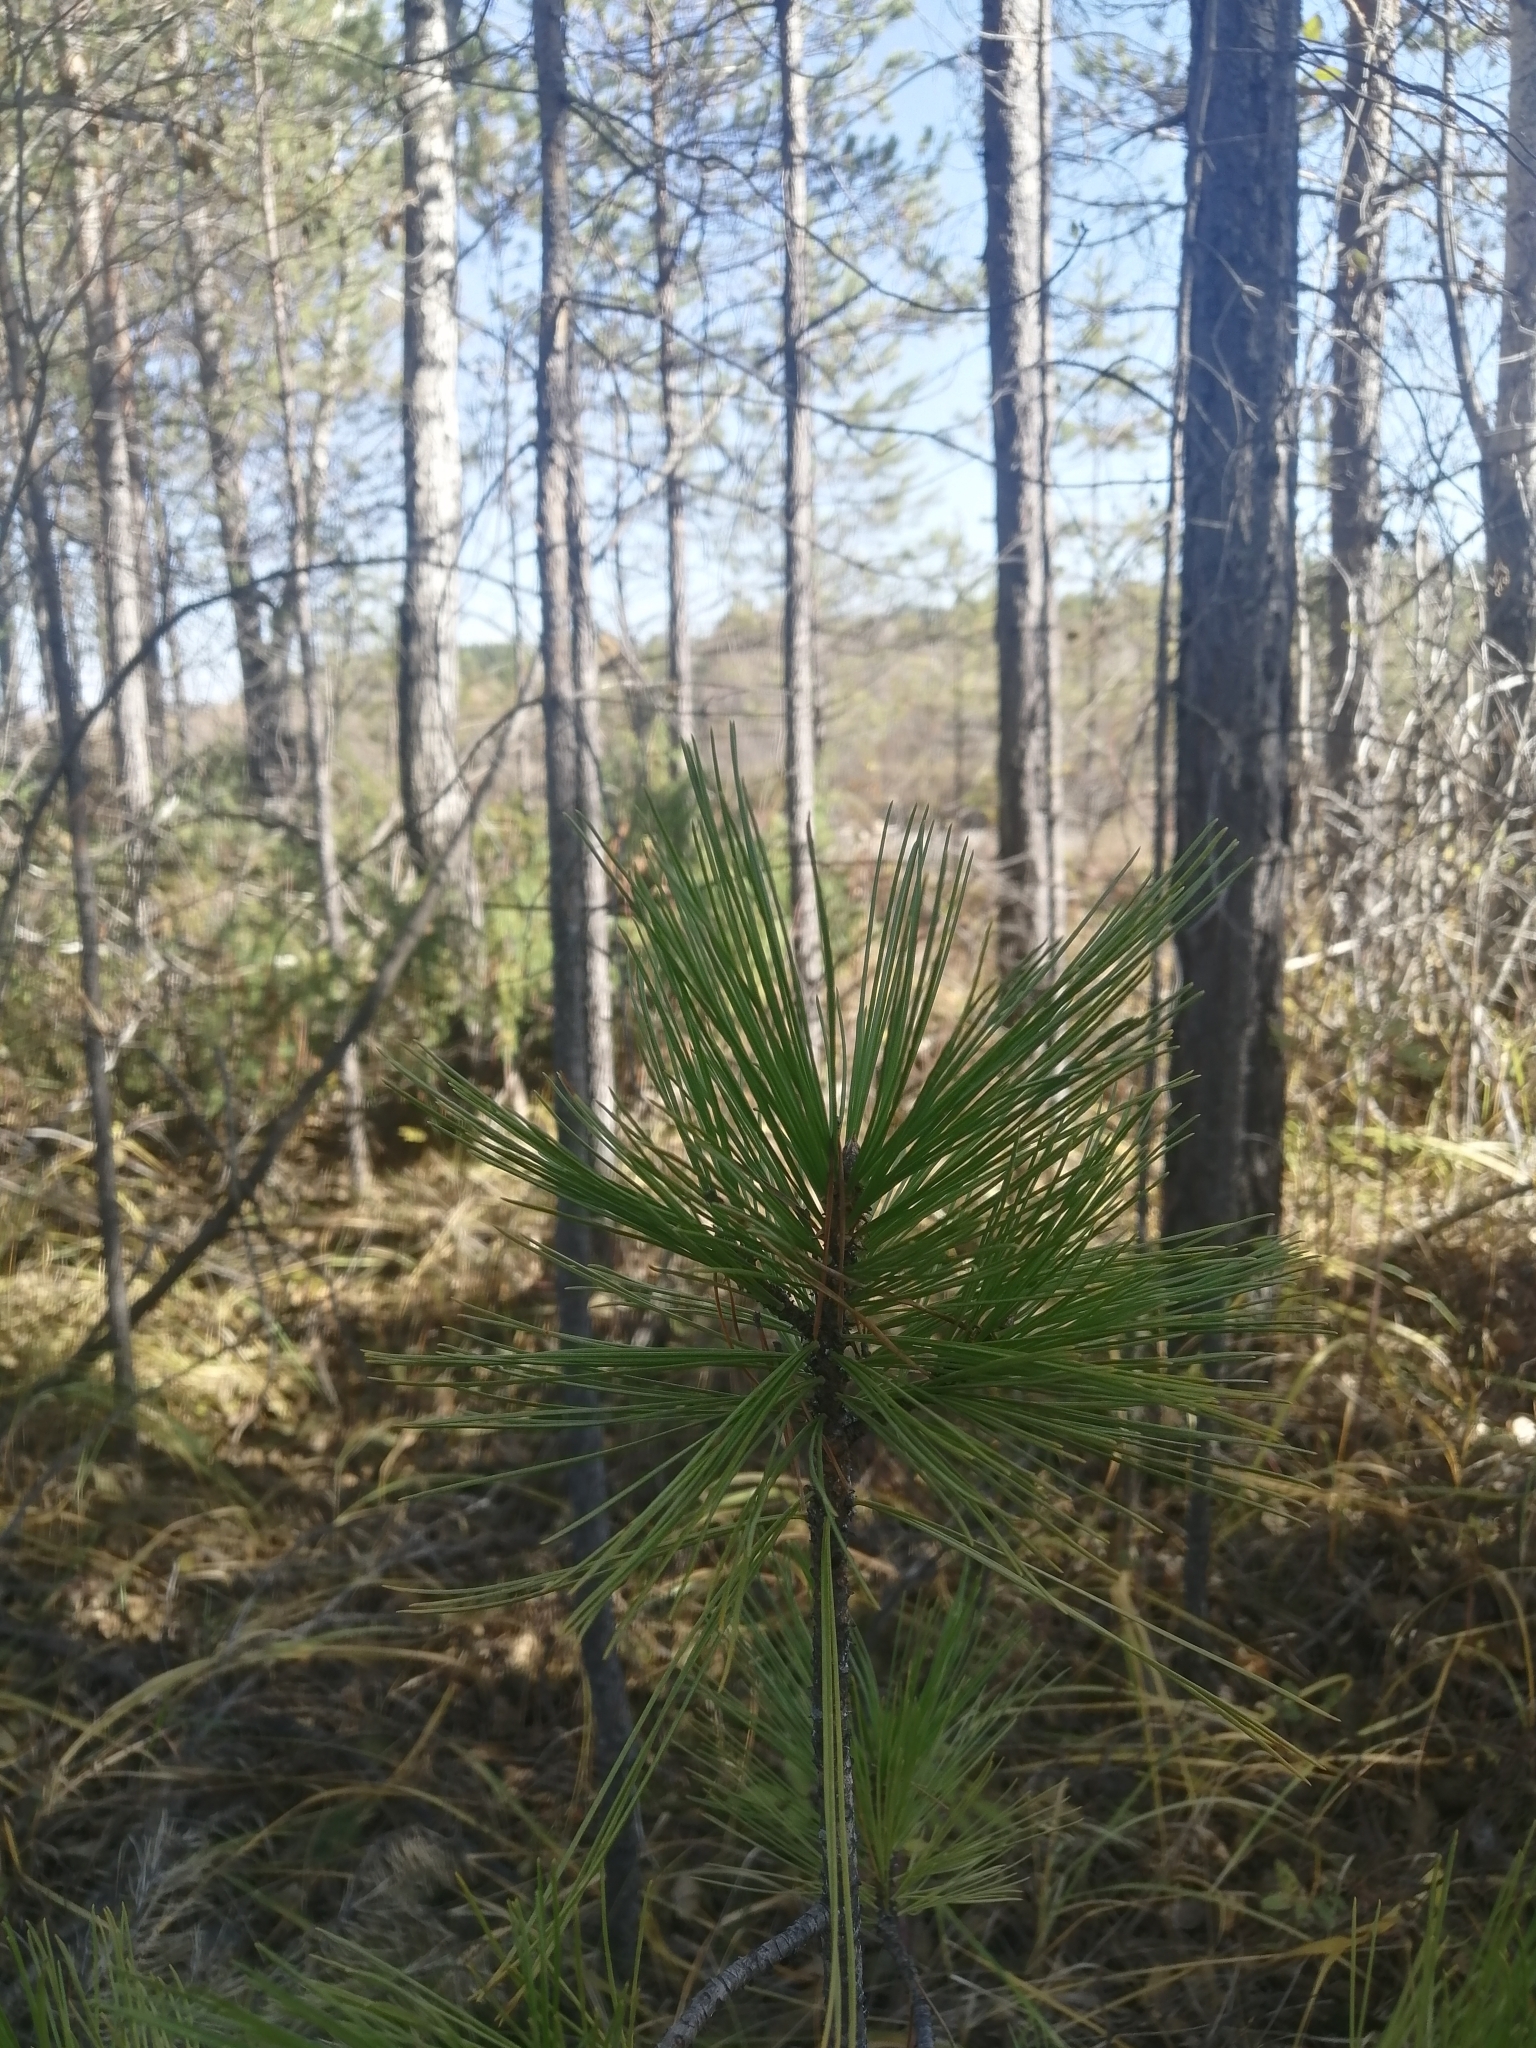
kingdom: Plantae
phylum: Tracheophyta
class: Pinopsida
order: Pinales
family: Pinaceae
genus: Pinus
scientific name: Pinus sibirica
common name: Siberian pine
